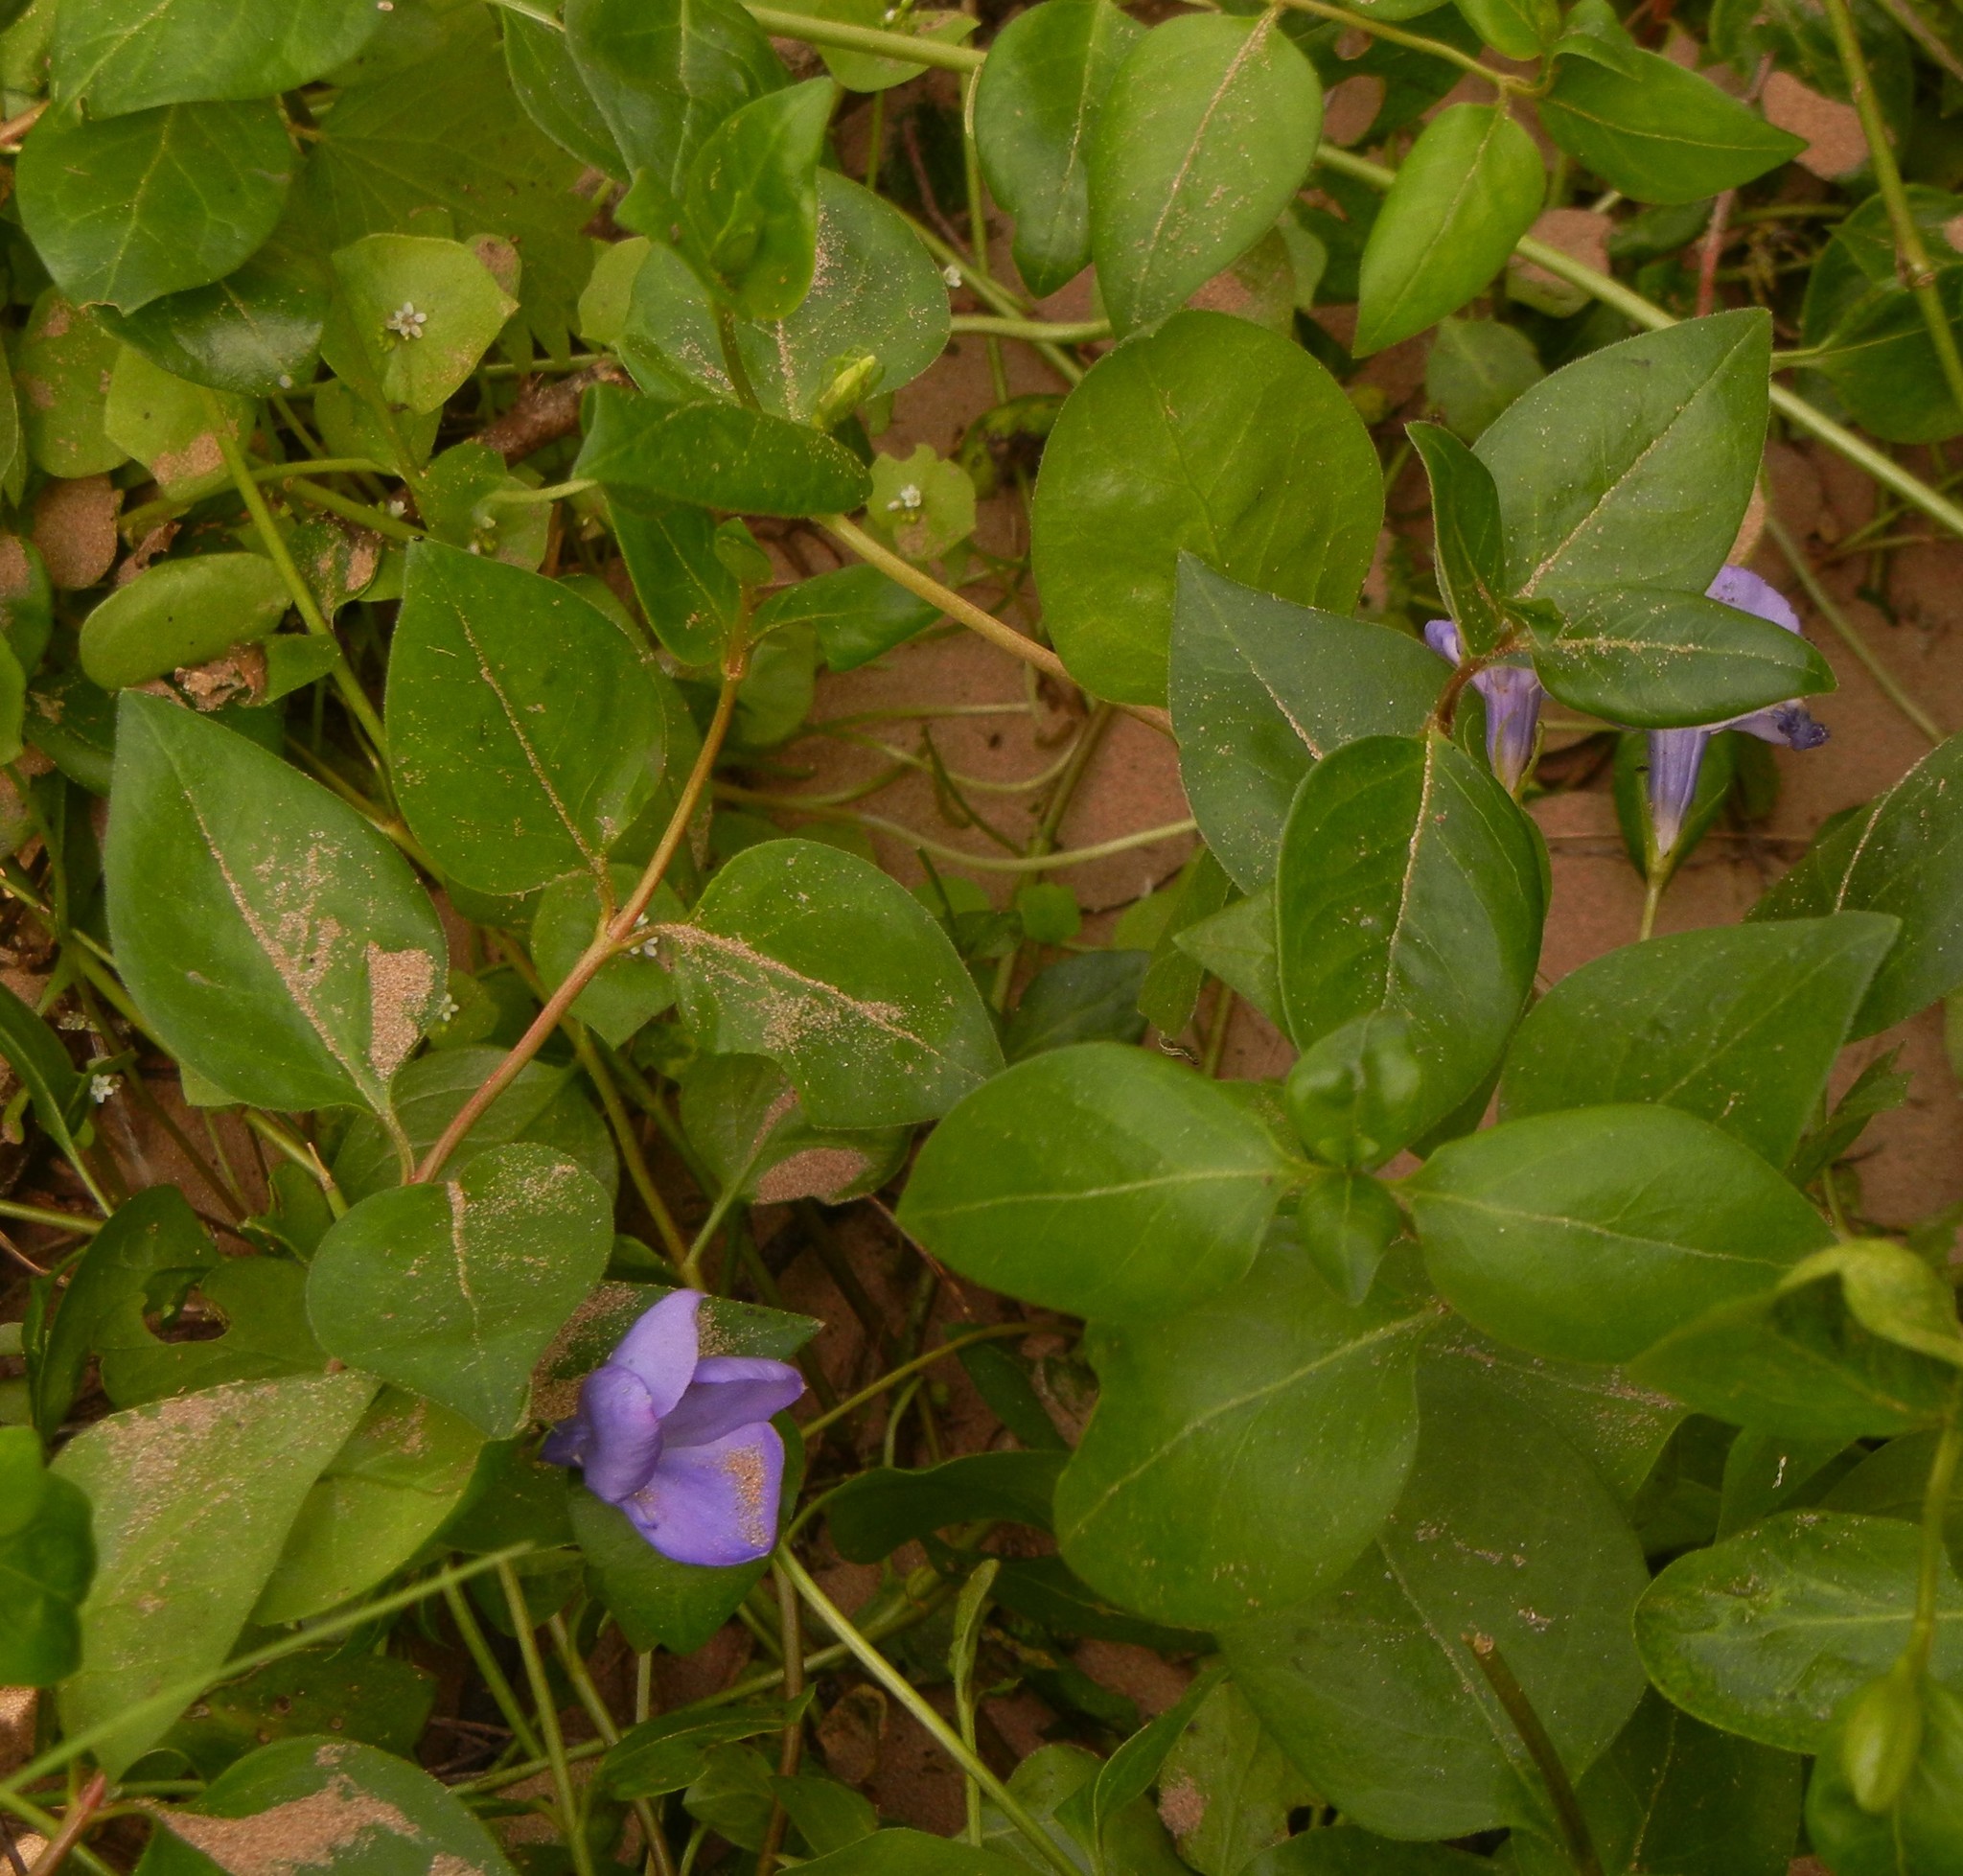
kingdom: Plantae
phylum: Tracheophyta
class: Magnoliopsida
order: Gentianales
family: Apocynaceae
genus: Vinca
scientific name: Vinca major
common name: Greater periwinkle
